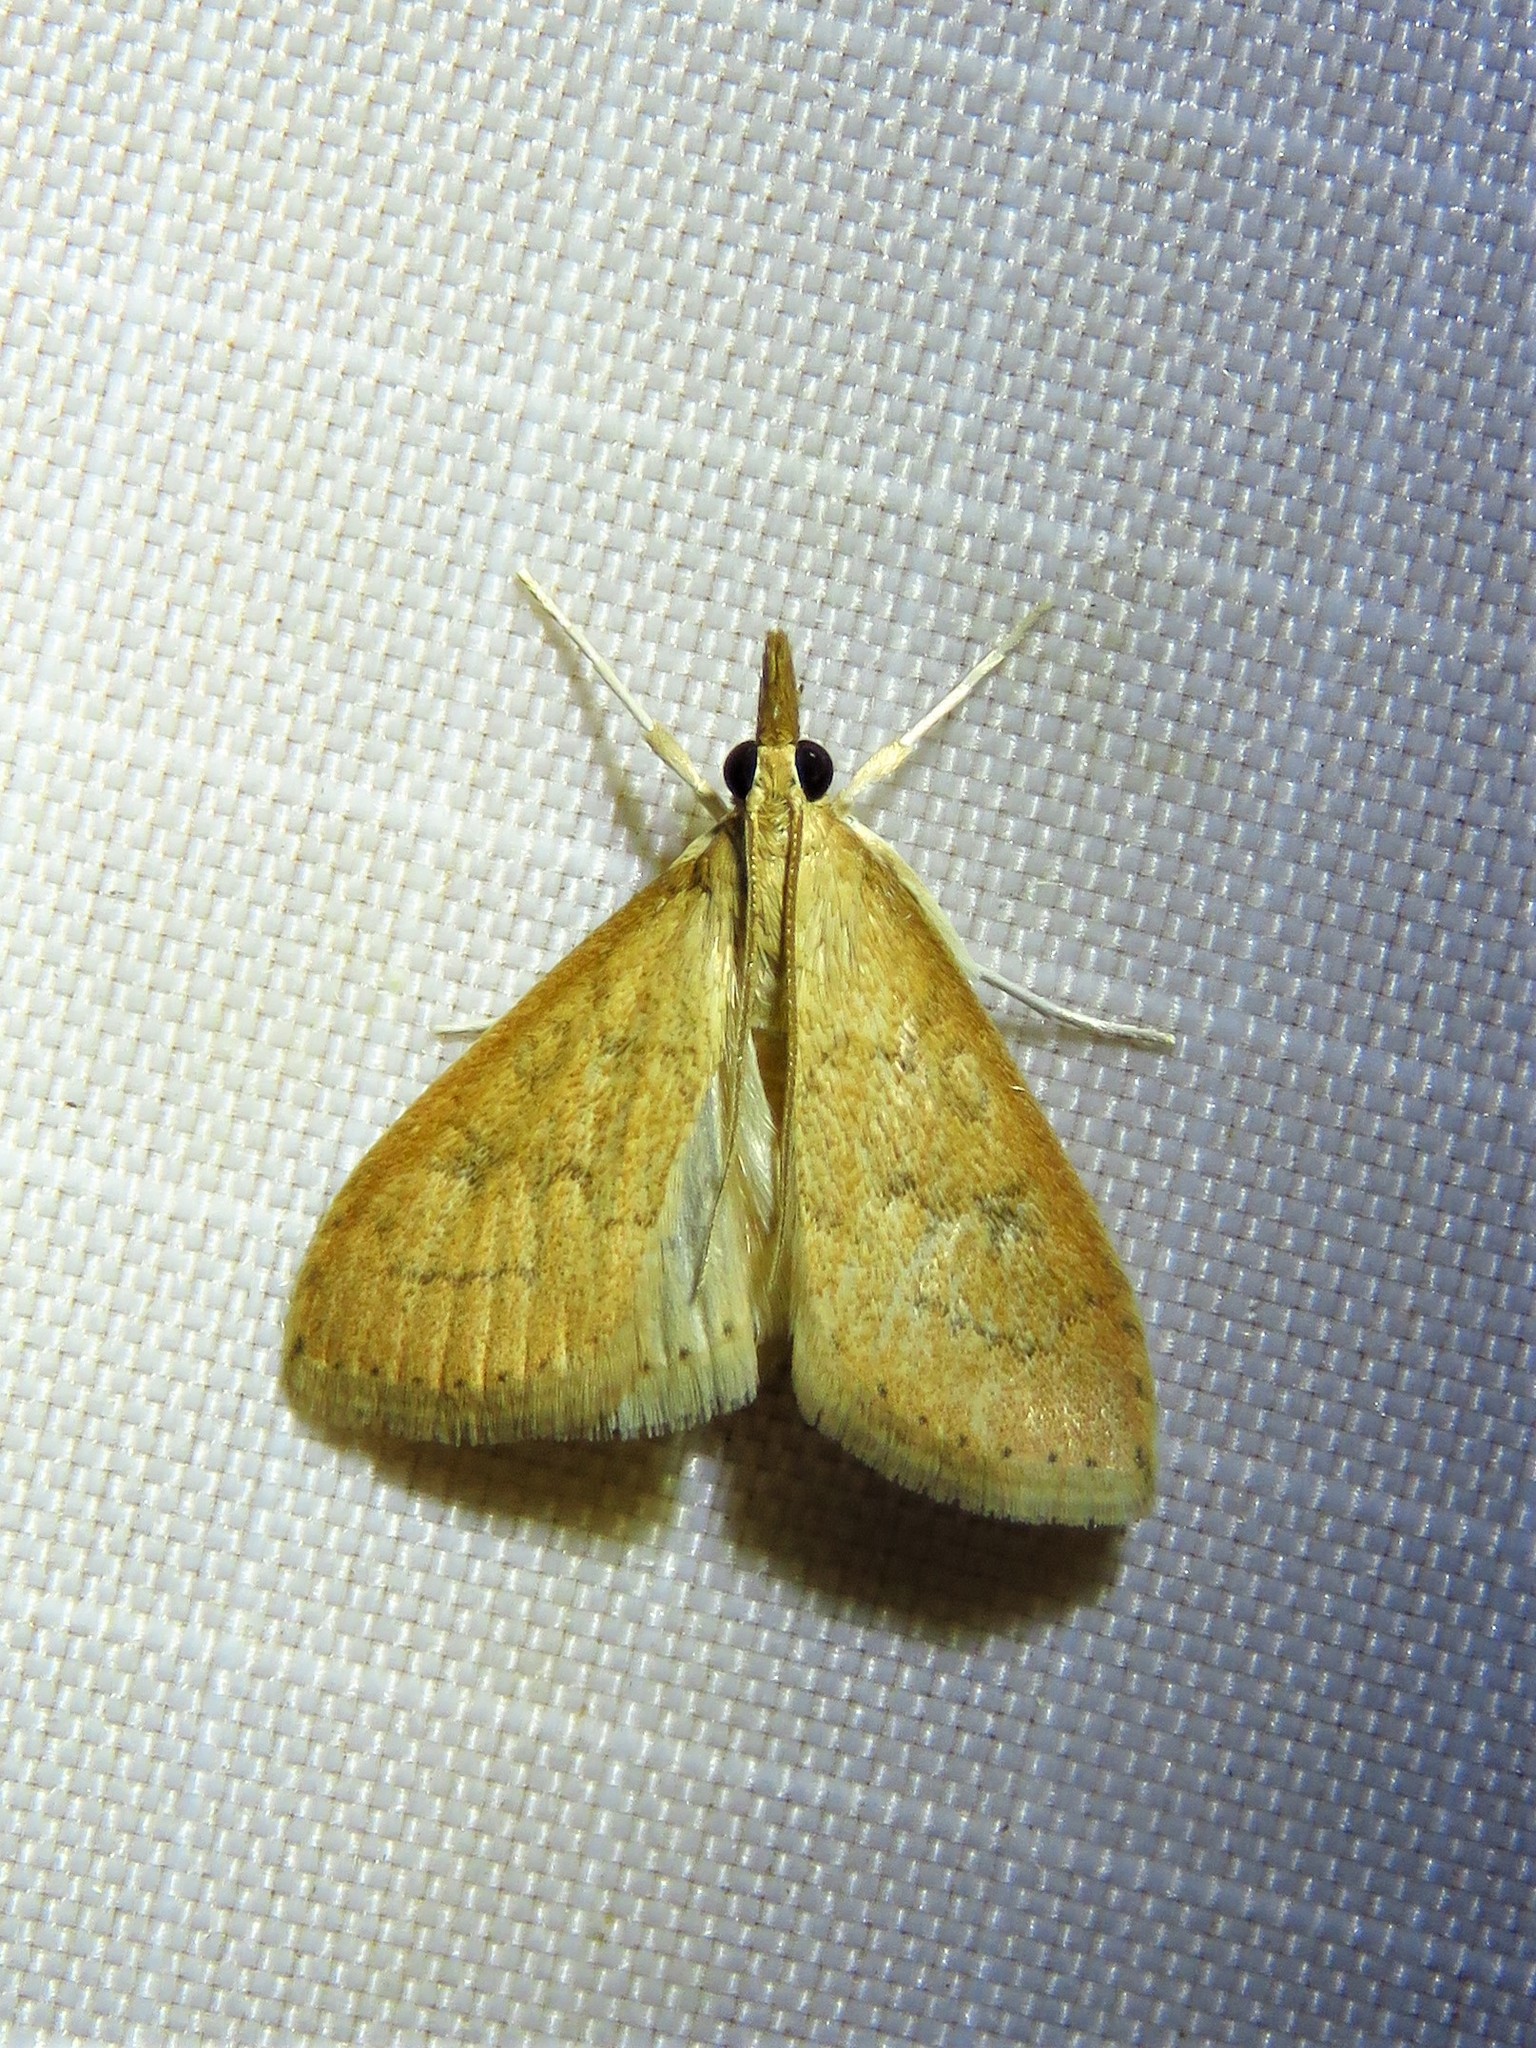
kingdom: Animalia
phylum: Arthropoda
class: Insecta
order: Lepidoptera
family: Crambidae
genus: Udea
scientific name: Udea rubigalis
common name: Celery leaftier moth
